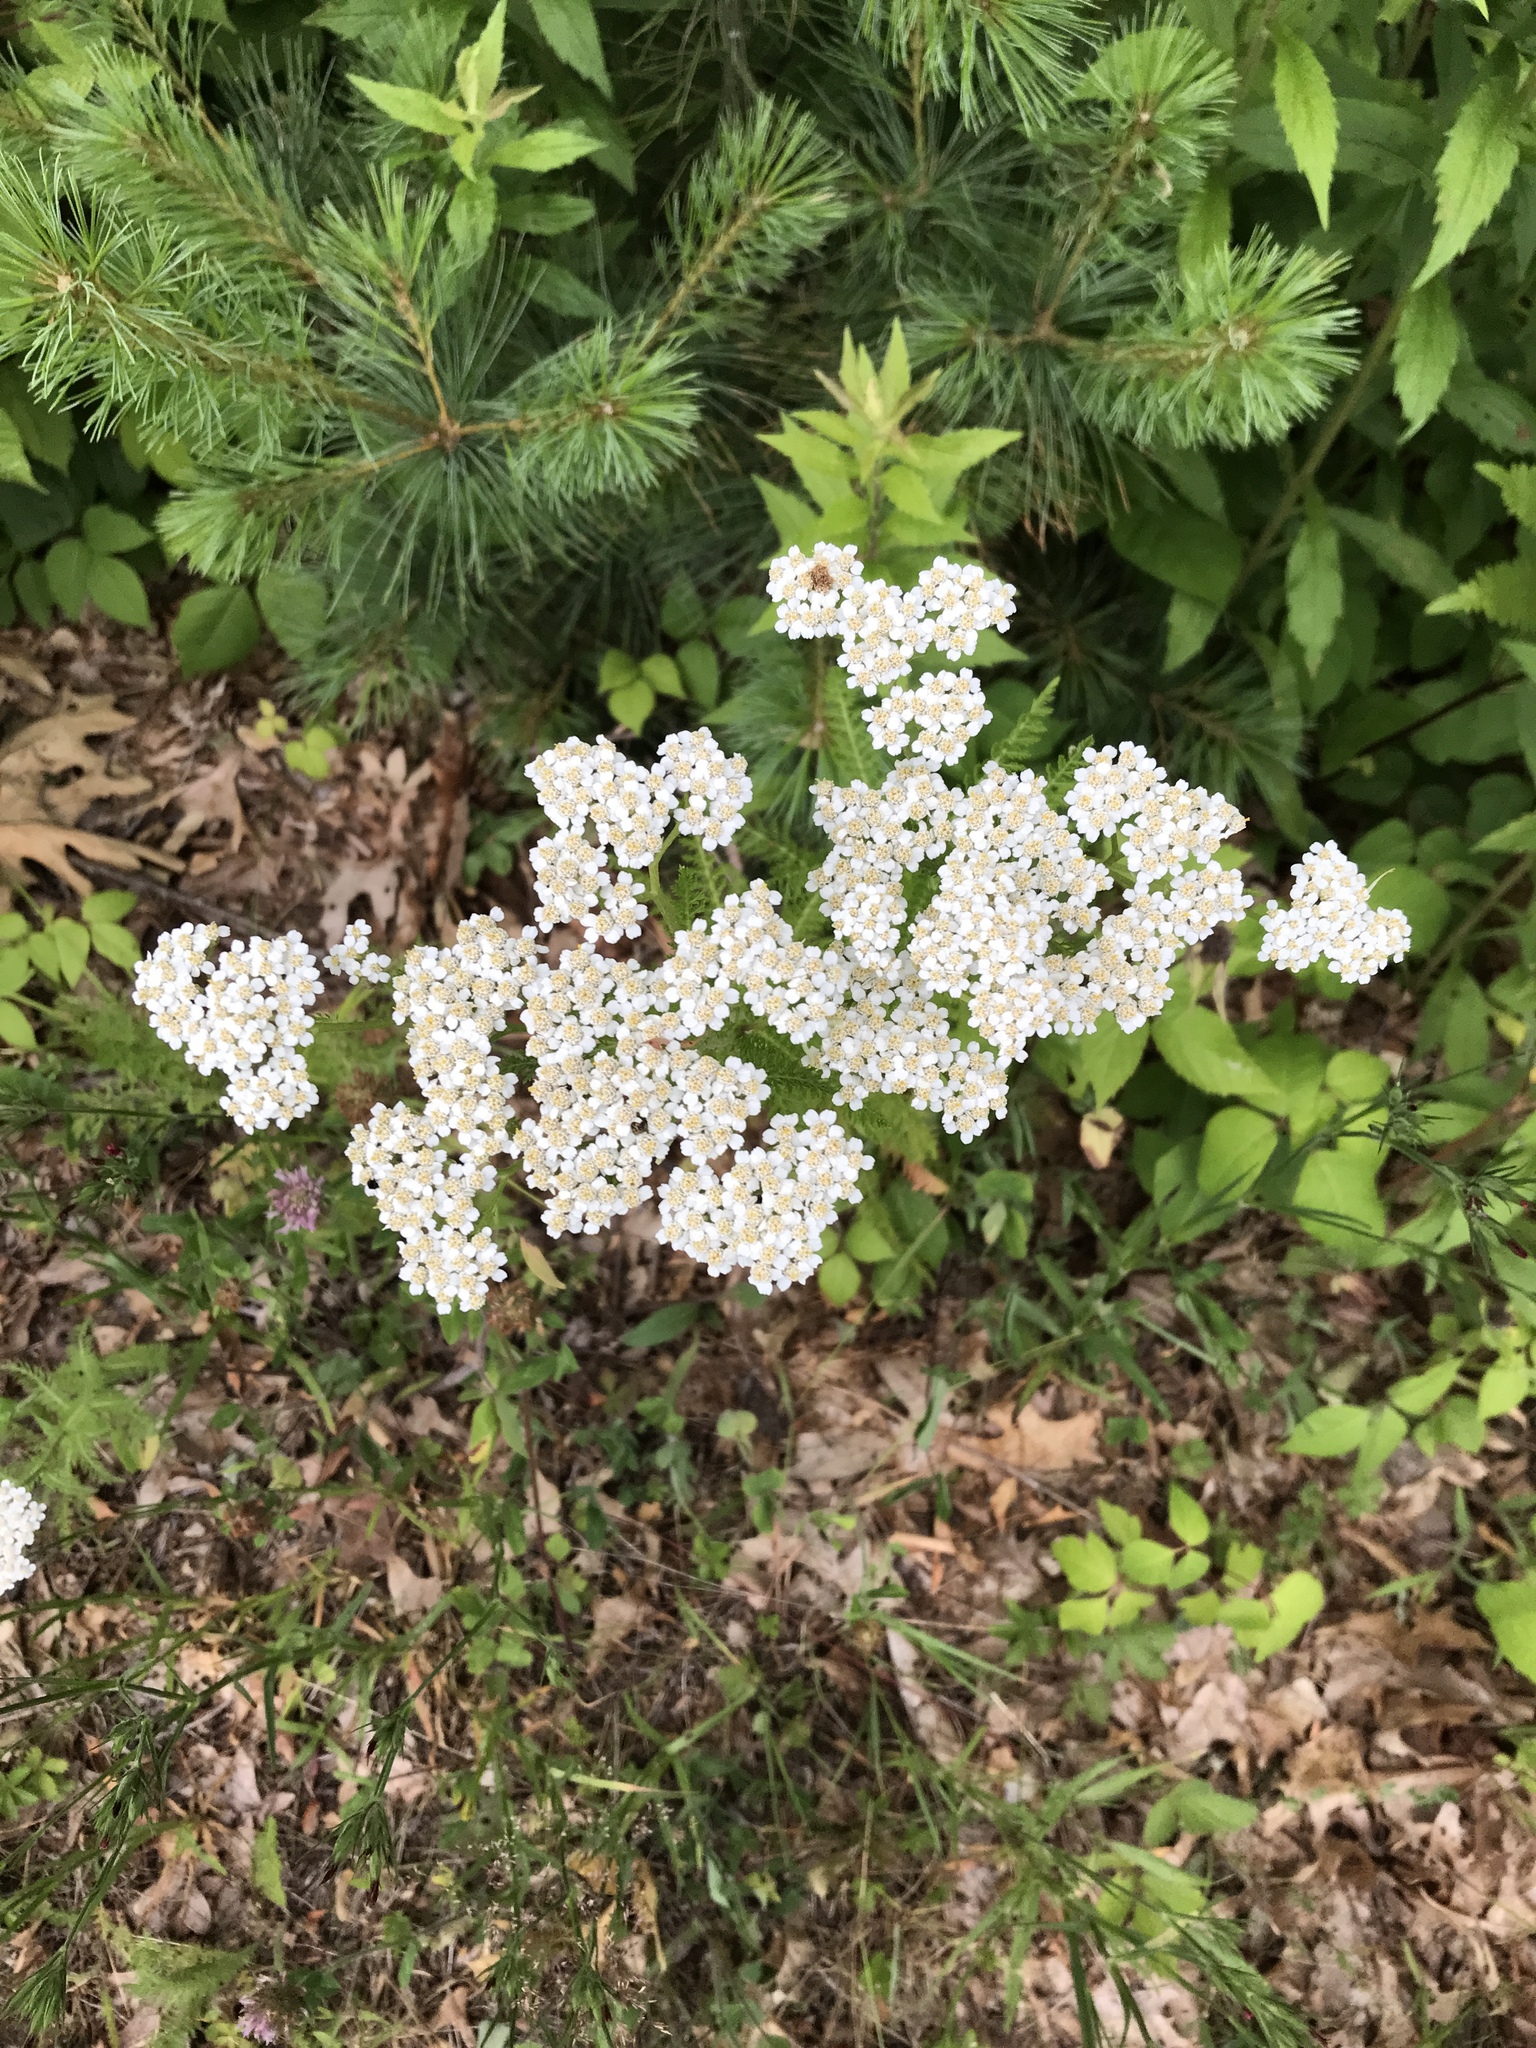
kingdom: Plantae
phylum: Tracheophyta
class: Magnoliopsida
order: Asterales
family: Asteraceae
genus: Achillea
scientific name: Achillea millefolium
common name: Yarrow
